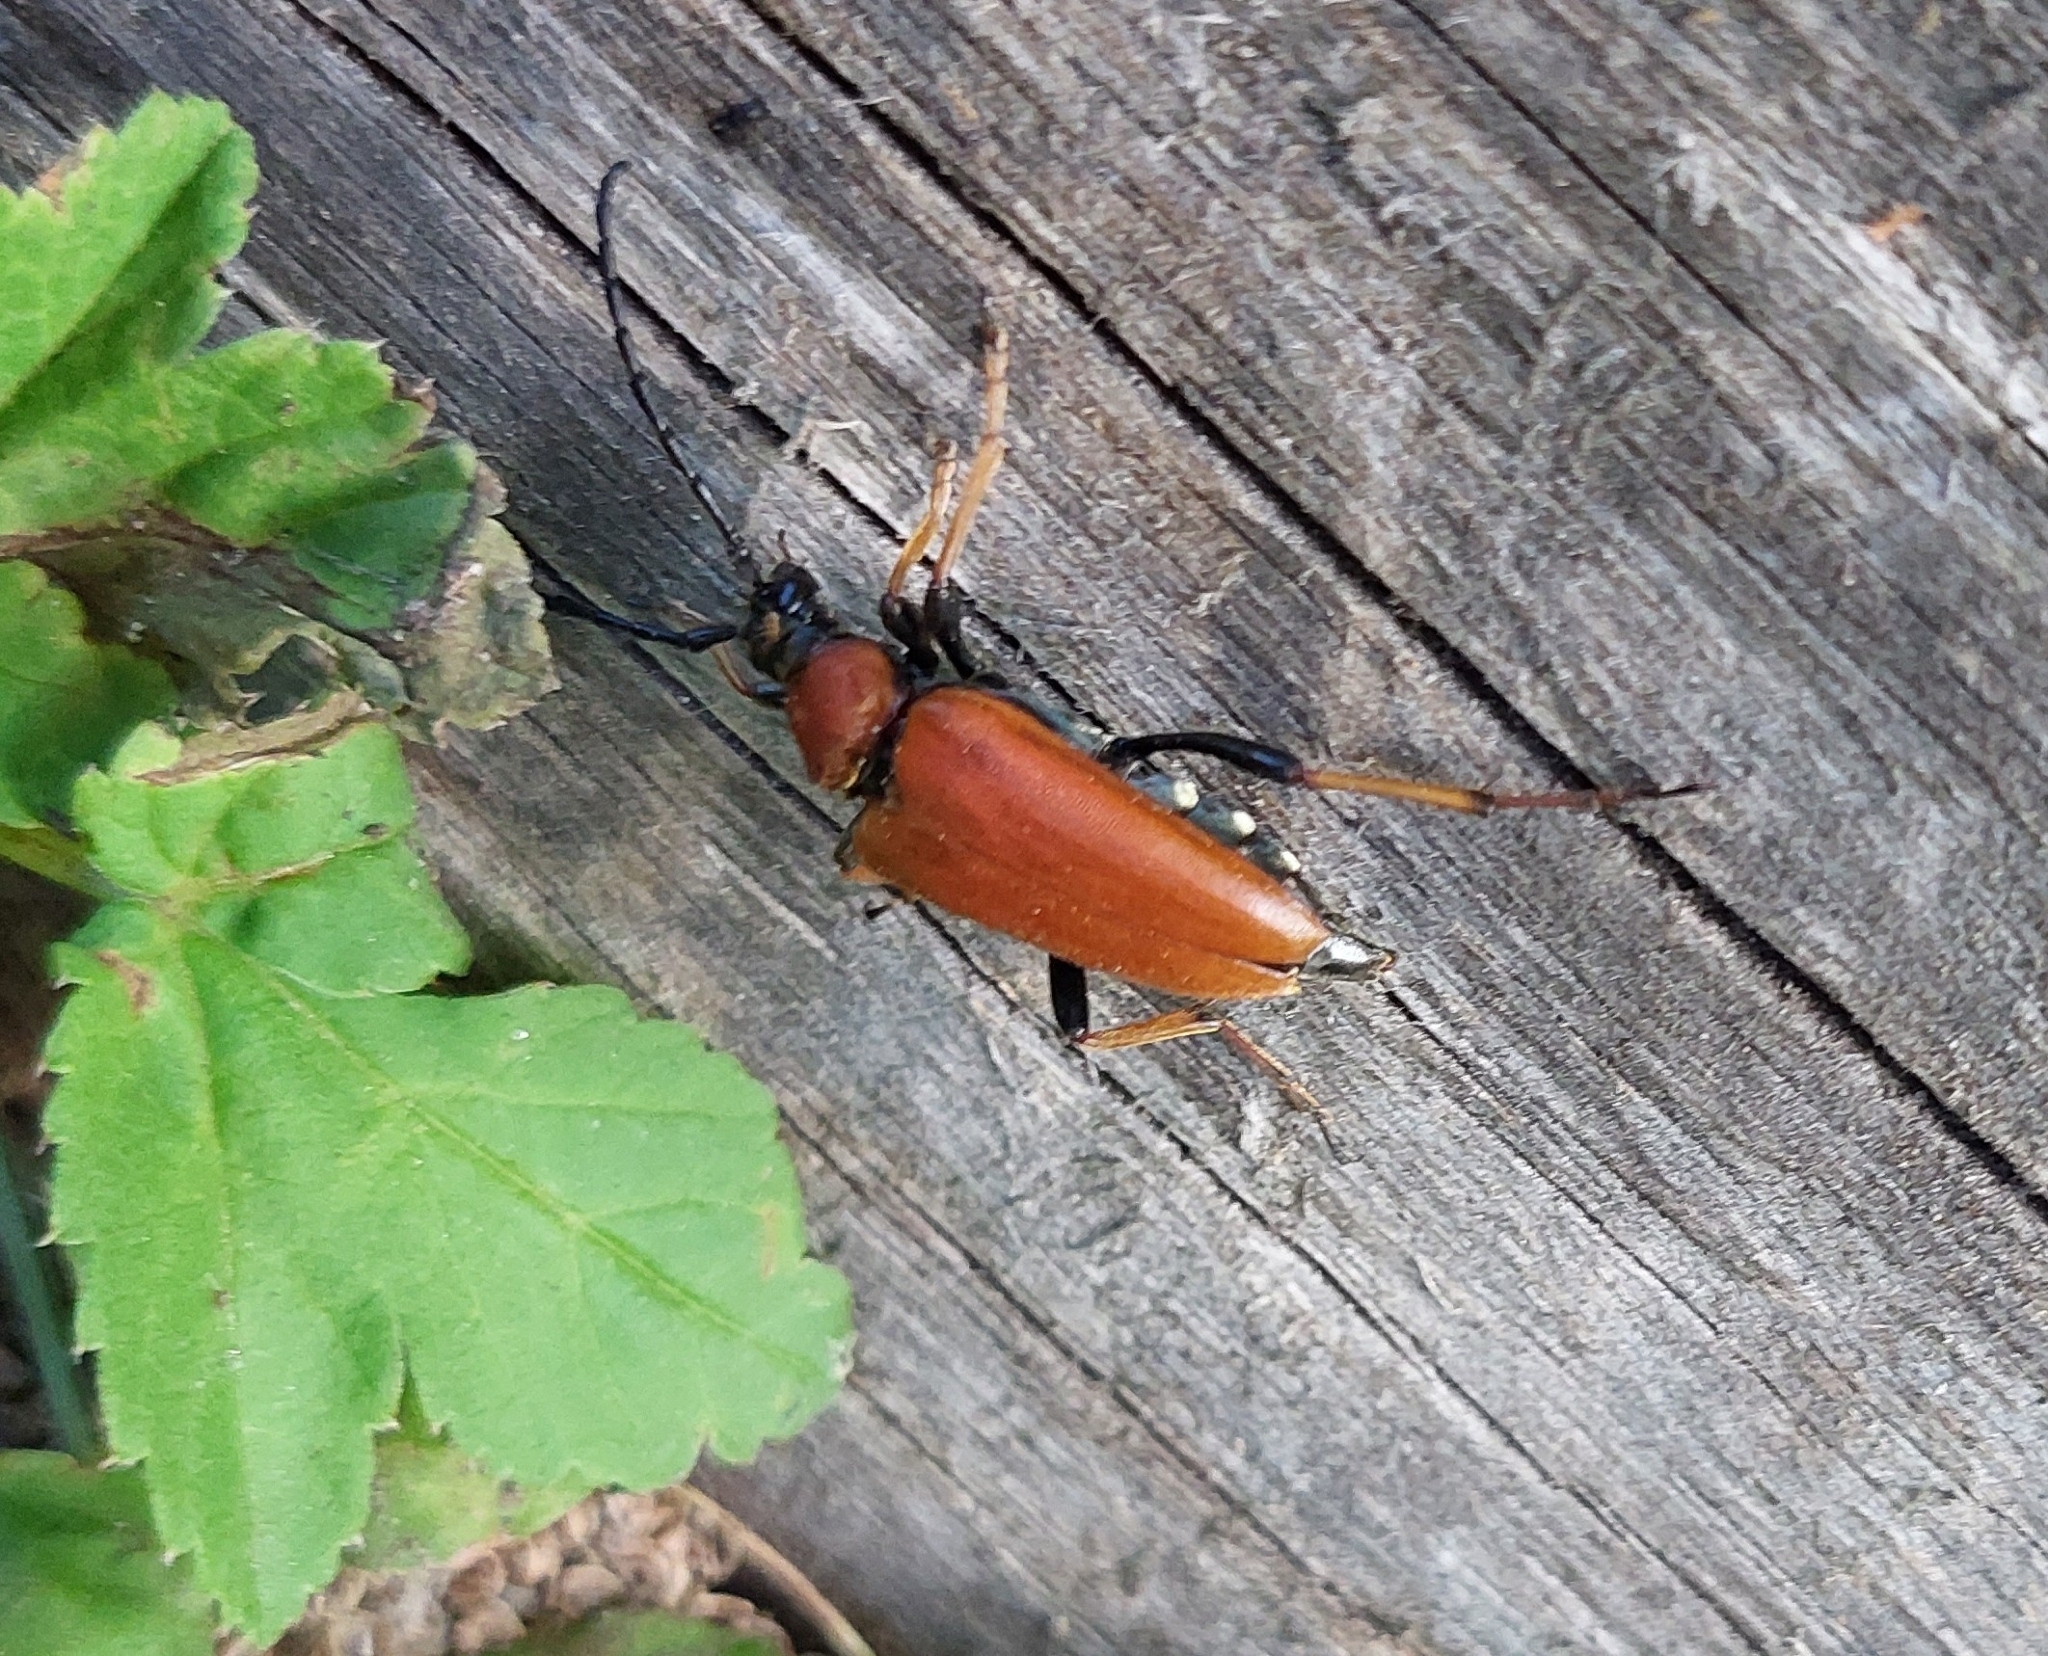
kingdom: Animalia
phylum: Arthropoda
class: Insecta
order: Coleoptera
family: Cerambycidae
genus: Stictoleptura
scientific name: Stictoleptura rubra
